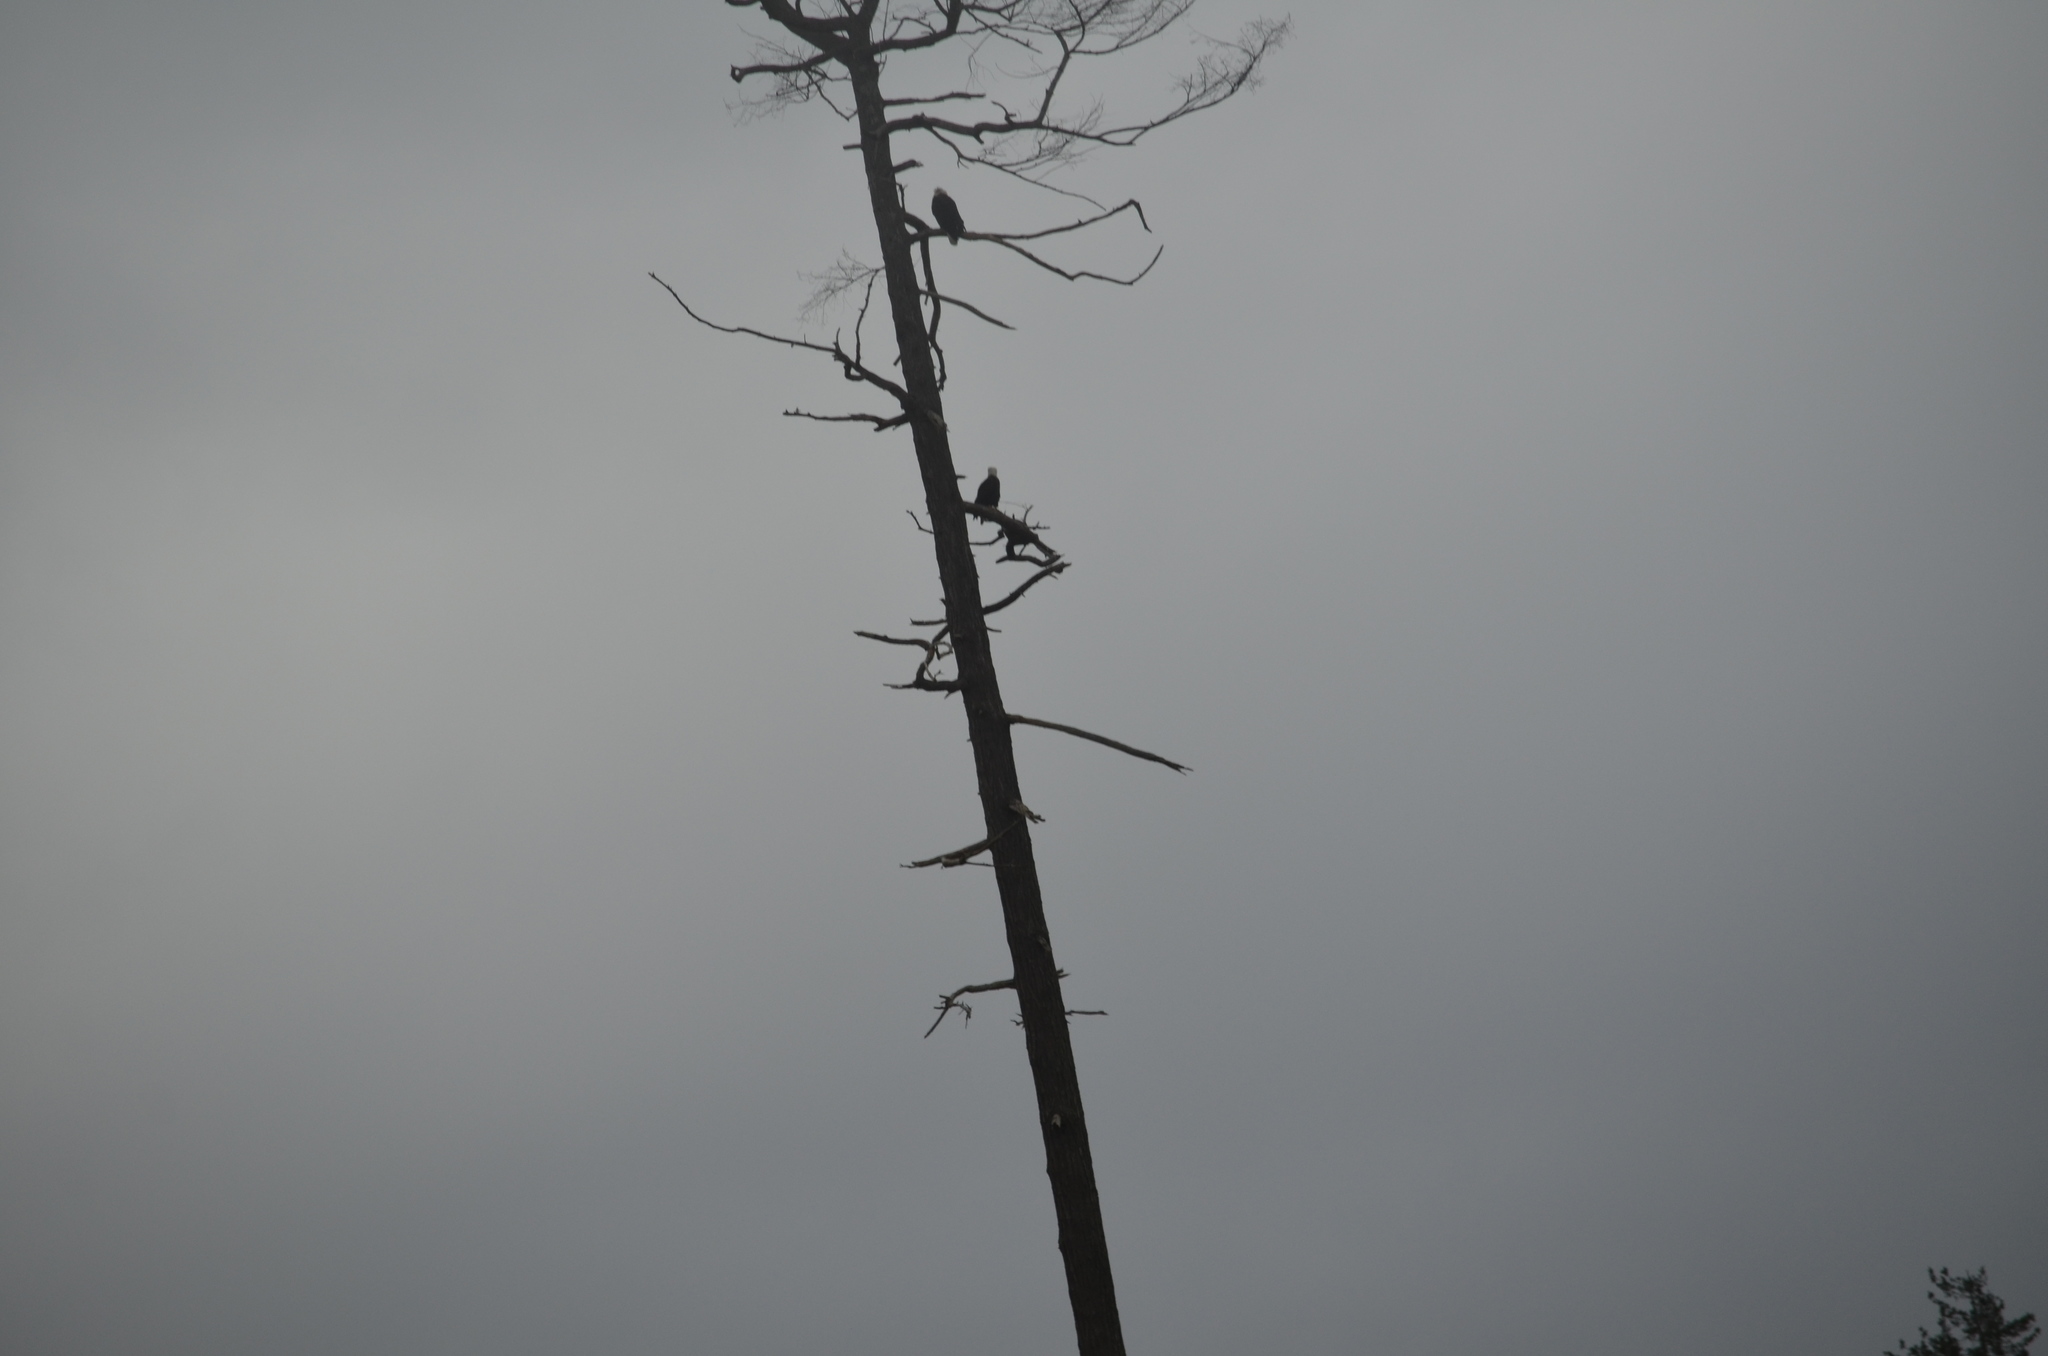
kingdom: Animalia
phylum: Chordata
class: Aves
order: Accipitriformes
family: Accipitridae
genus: Haliaeetus
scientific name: Haliaeetus leucocephalus
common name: Bald eagle
